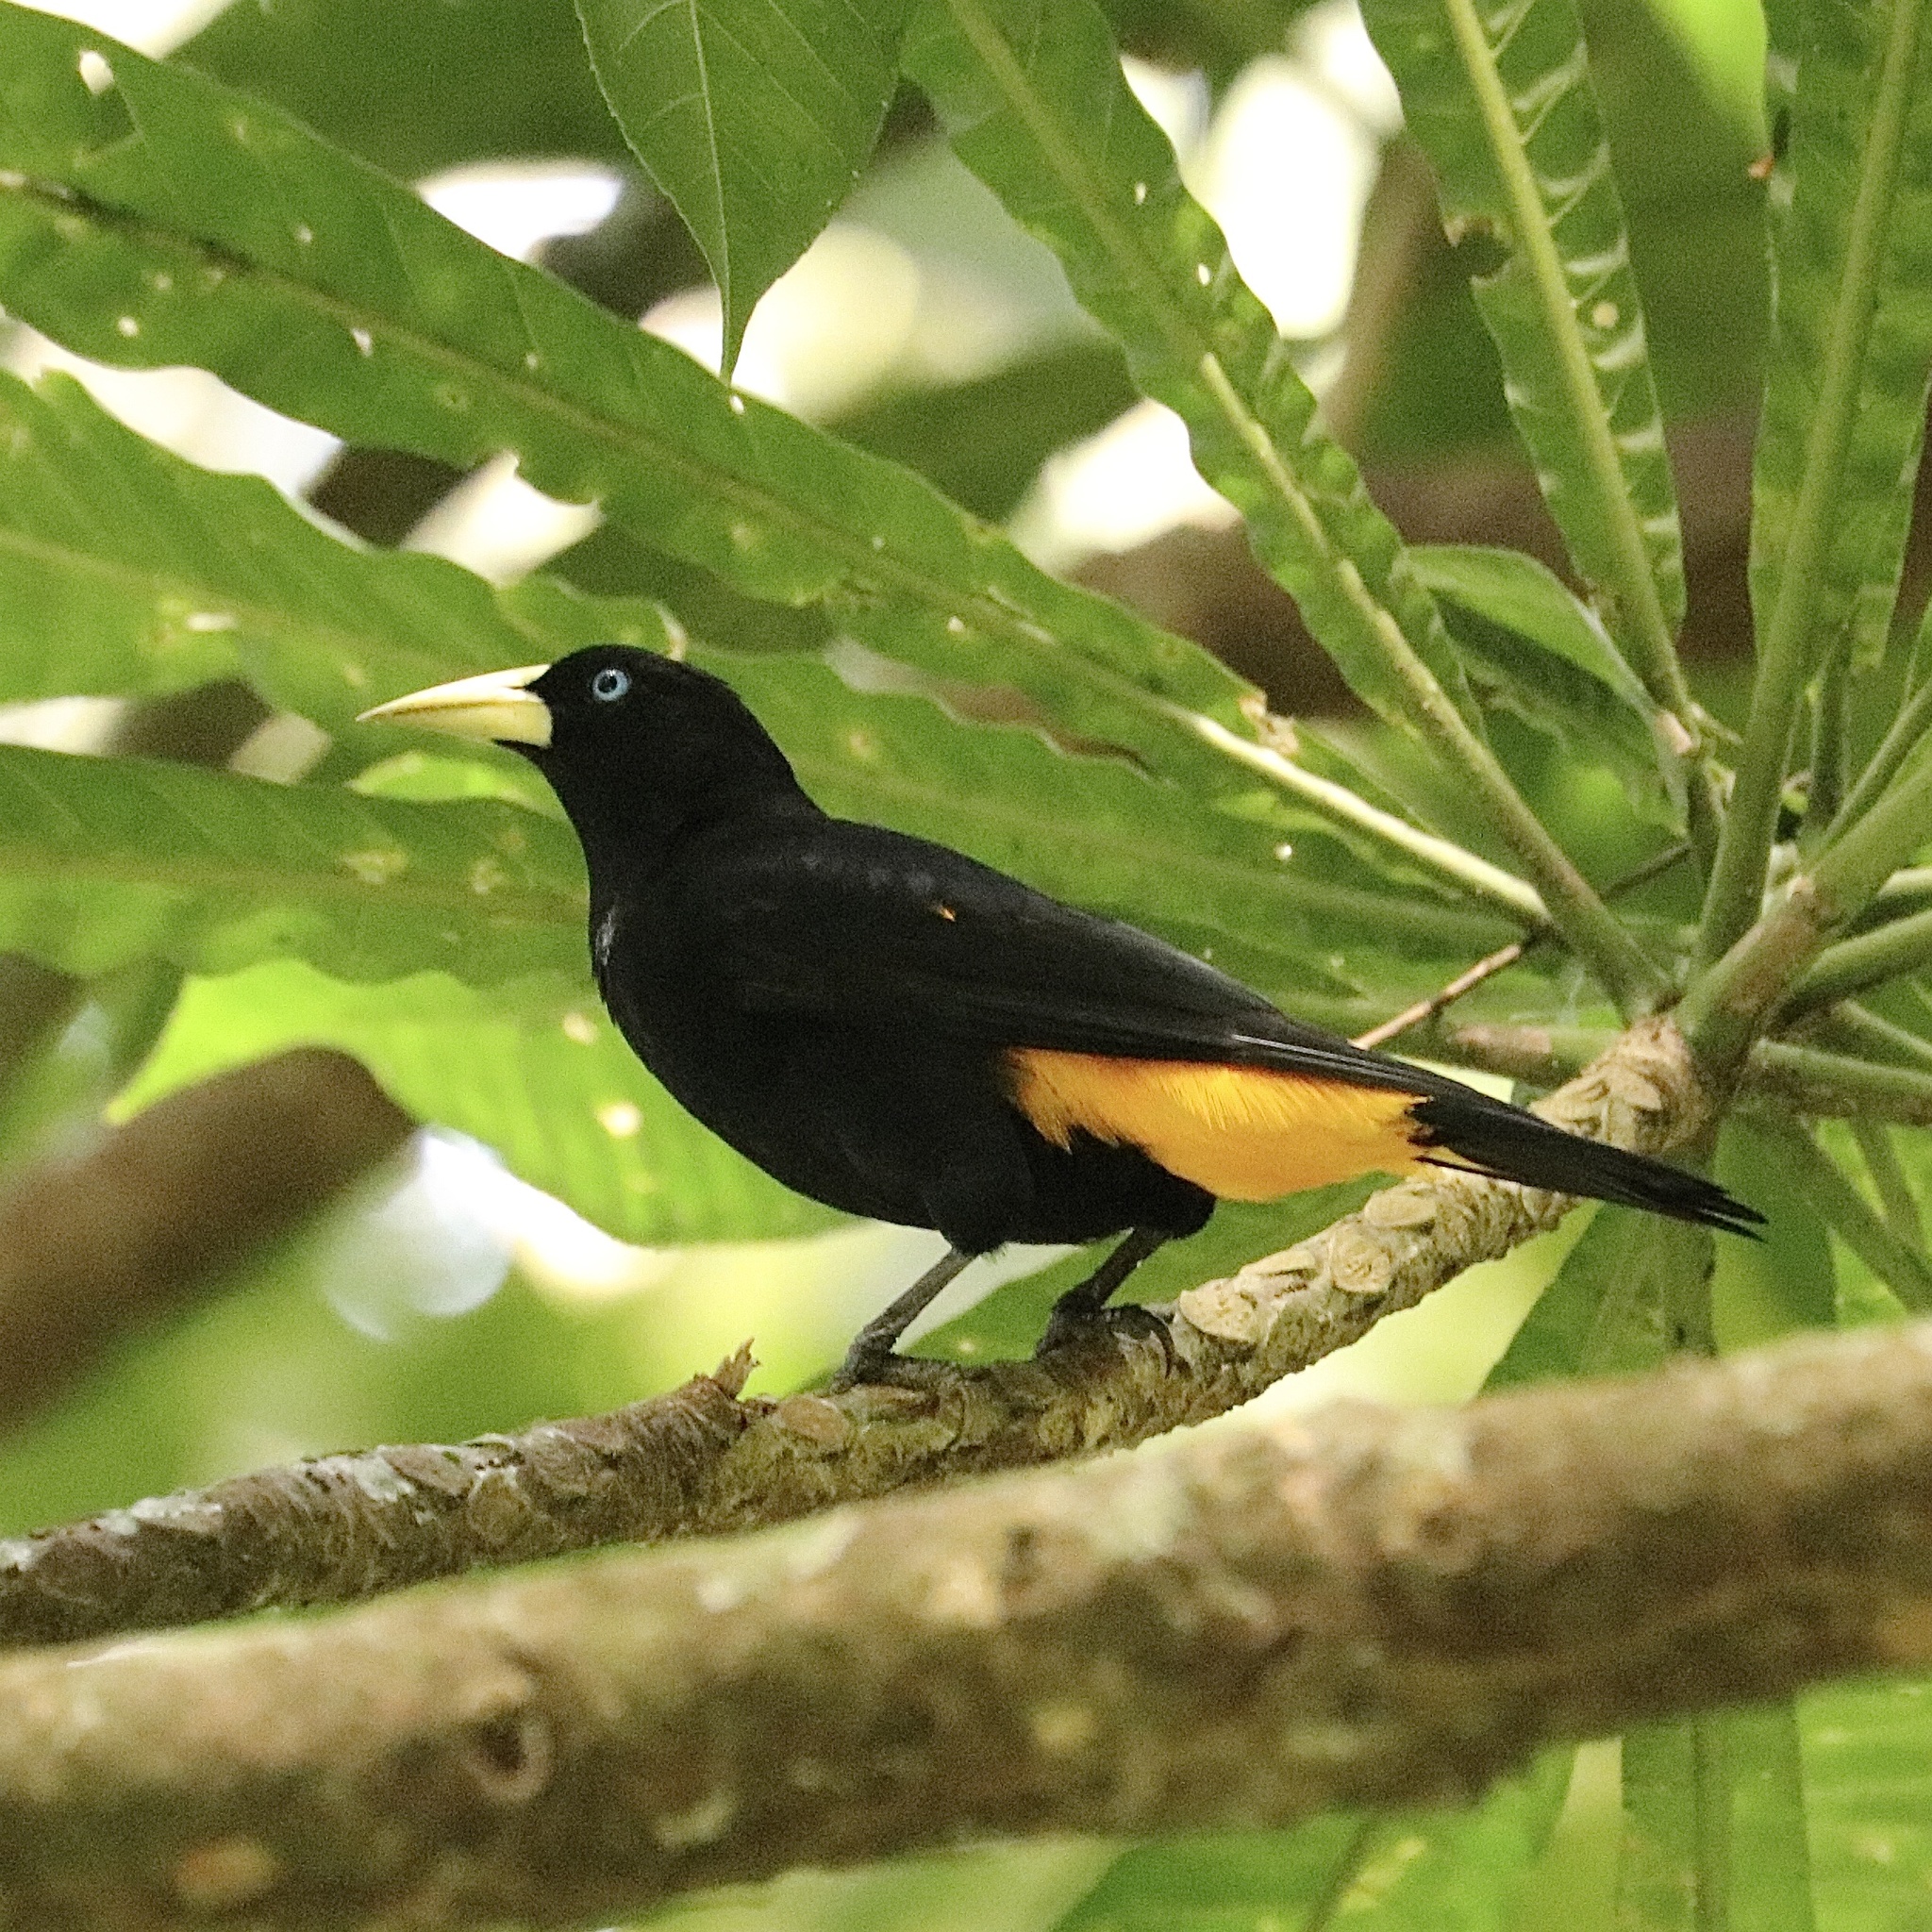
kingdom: Animalia
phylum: Chordata
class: Aves
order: Passeriformes
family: Icteridae
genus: Cacicus
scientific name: Cacicus cela
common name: Yellow-rumped cacique
